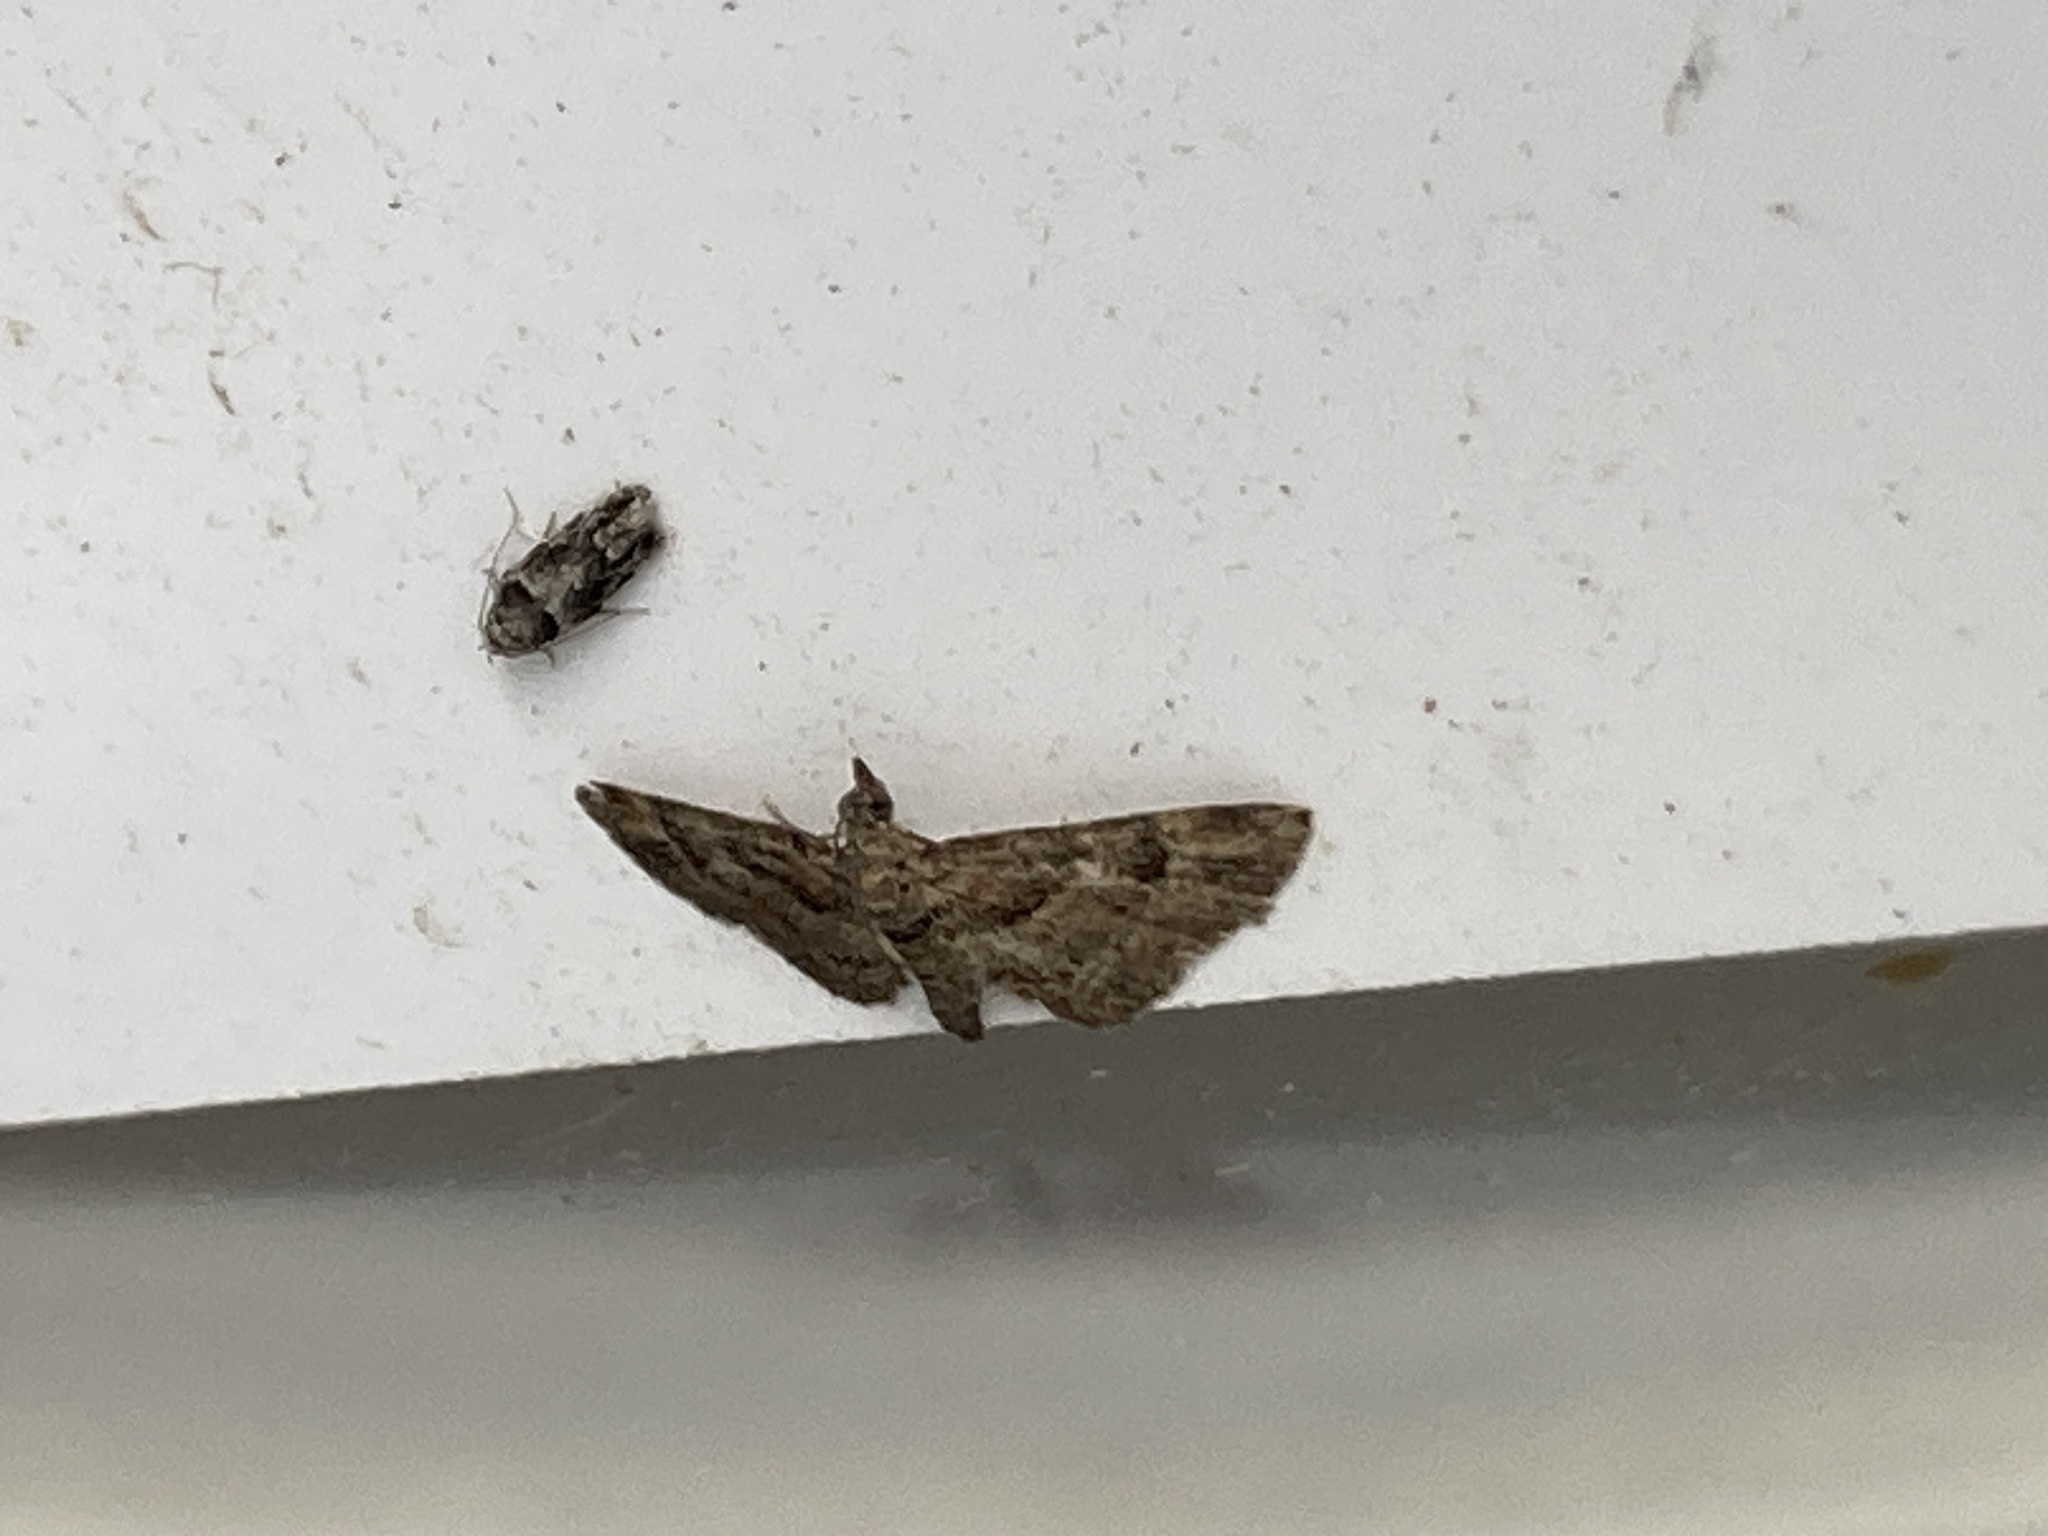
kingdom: Animalia
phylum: Arthropoda
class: Insecta
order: Lepidoptera
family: Geometridae
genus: Gymnoscelis
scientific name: Gymnoscelis rufifasciata
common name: Double-striped pug
